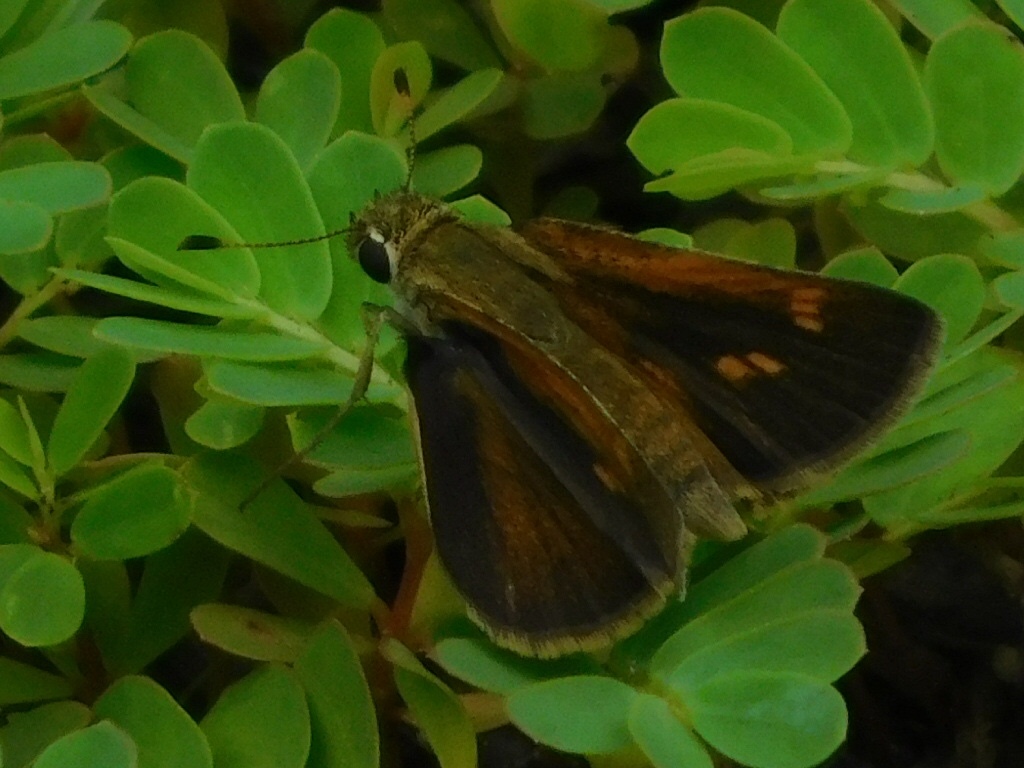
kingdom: Animalia
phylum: Arthropoda
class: Insecta
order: Lepidoptera
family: Hesperiidae
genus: Polites
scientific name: Polites baracoa
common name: Baracoa skipper
